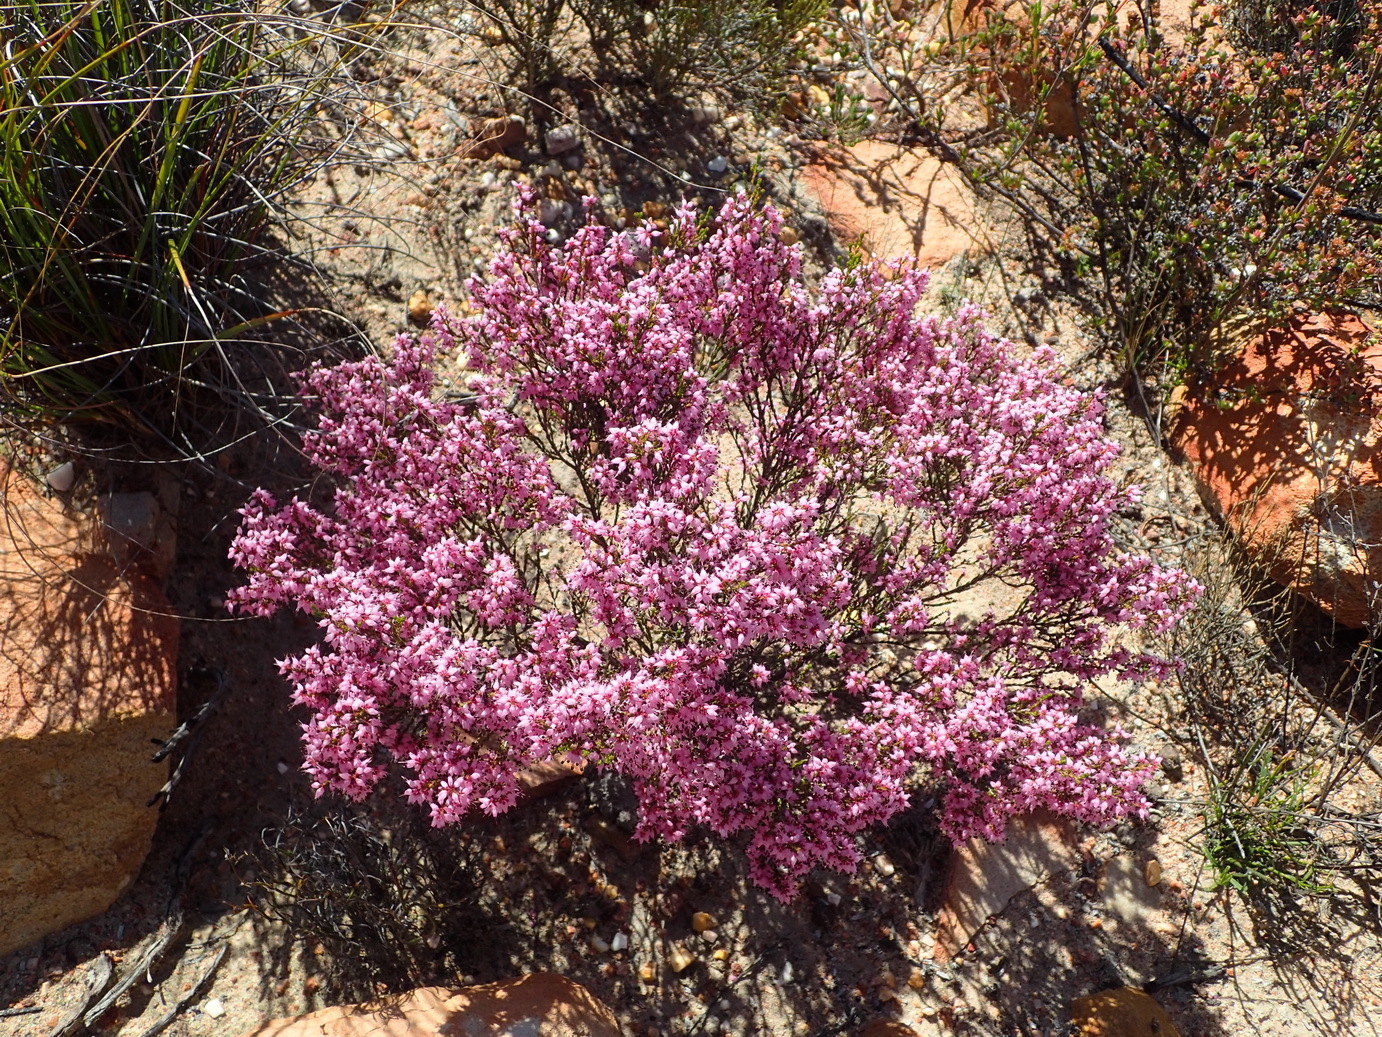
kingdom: Plantae
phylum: Tracheophyta
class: Magnoliopsida
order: Ericales
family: Ericaceae
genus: Erica
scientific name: Erica rosacea
